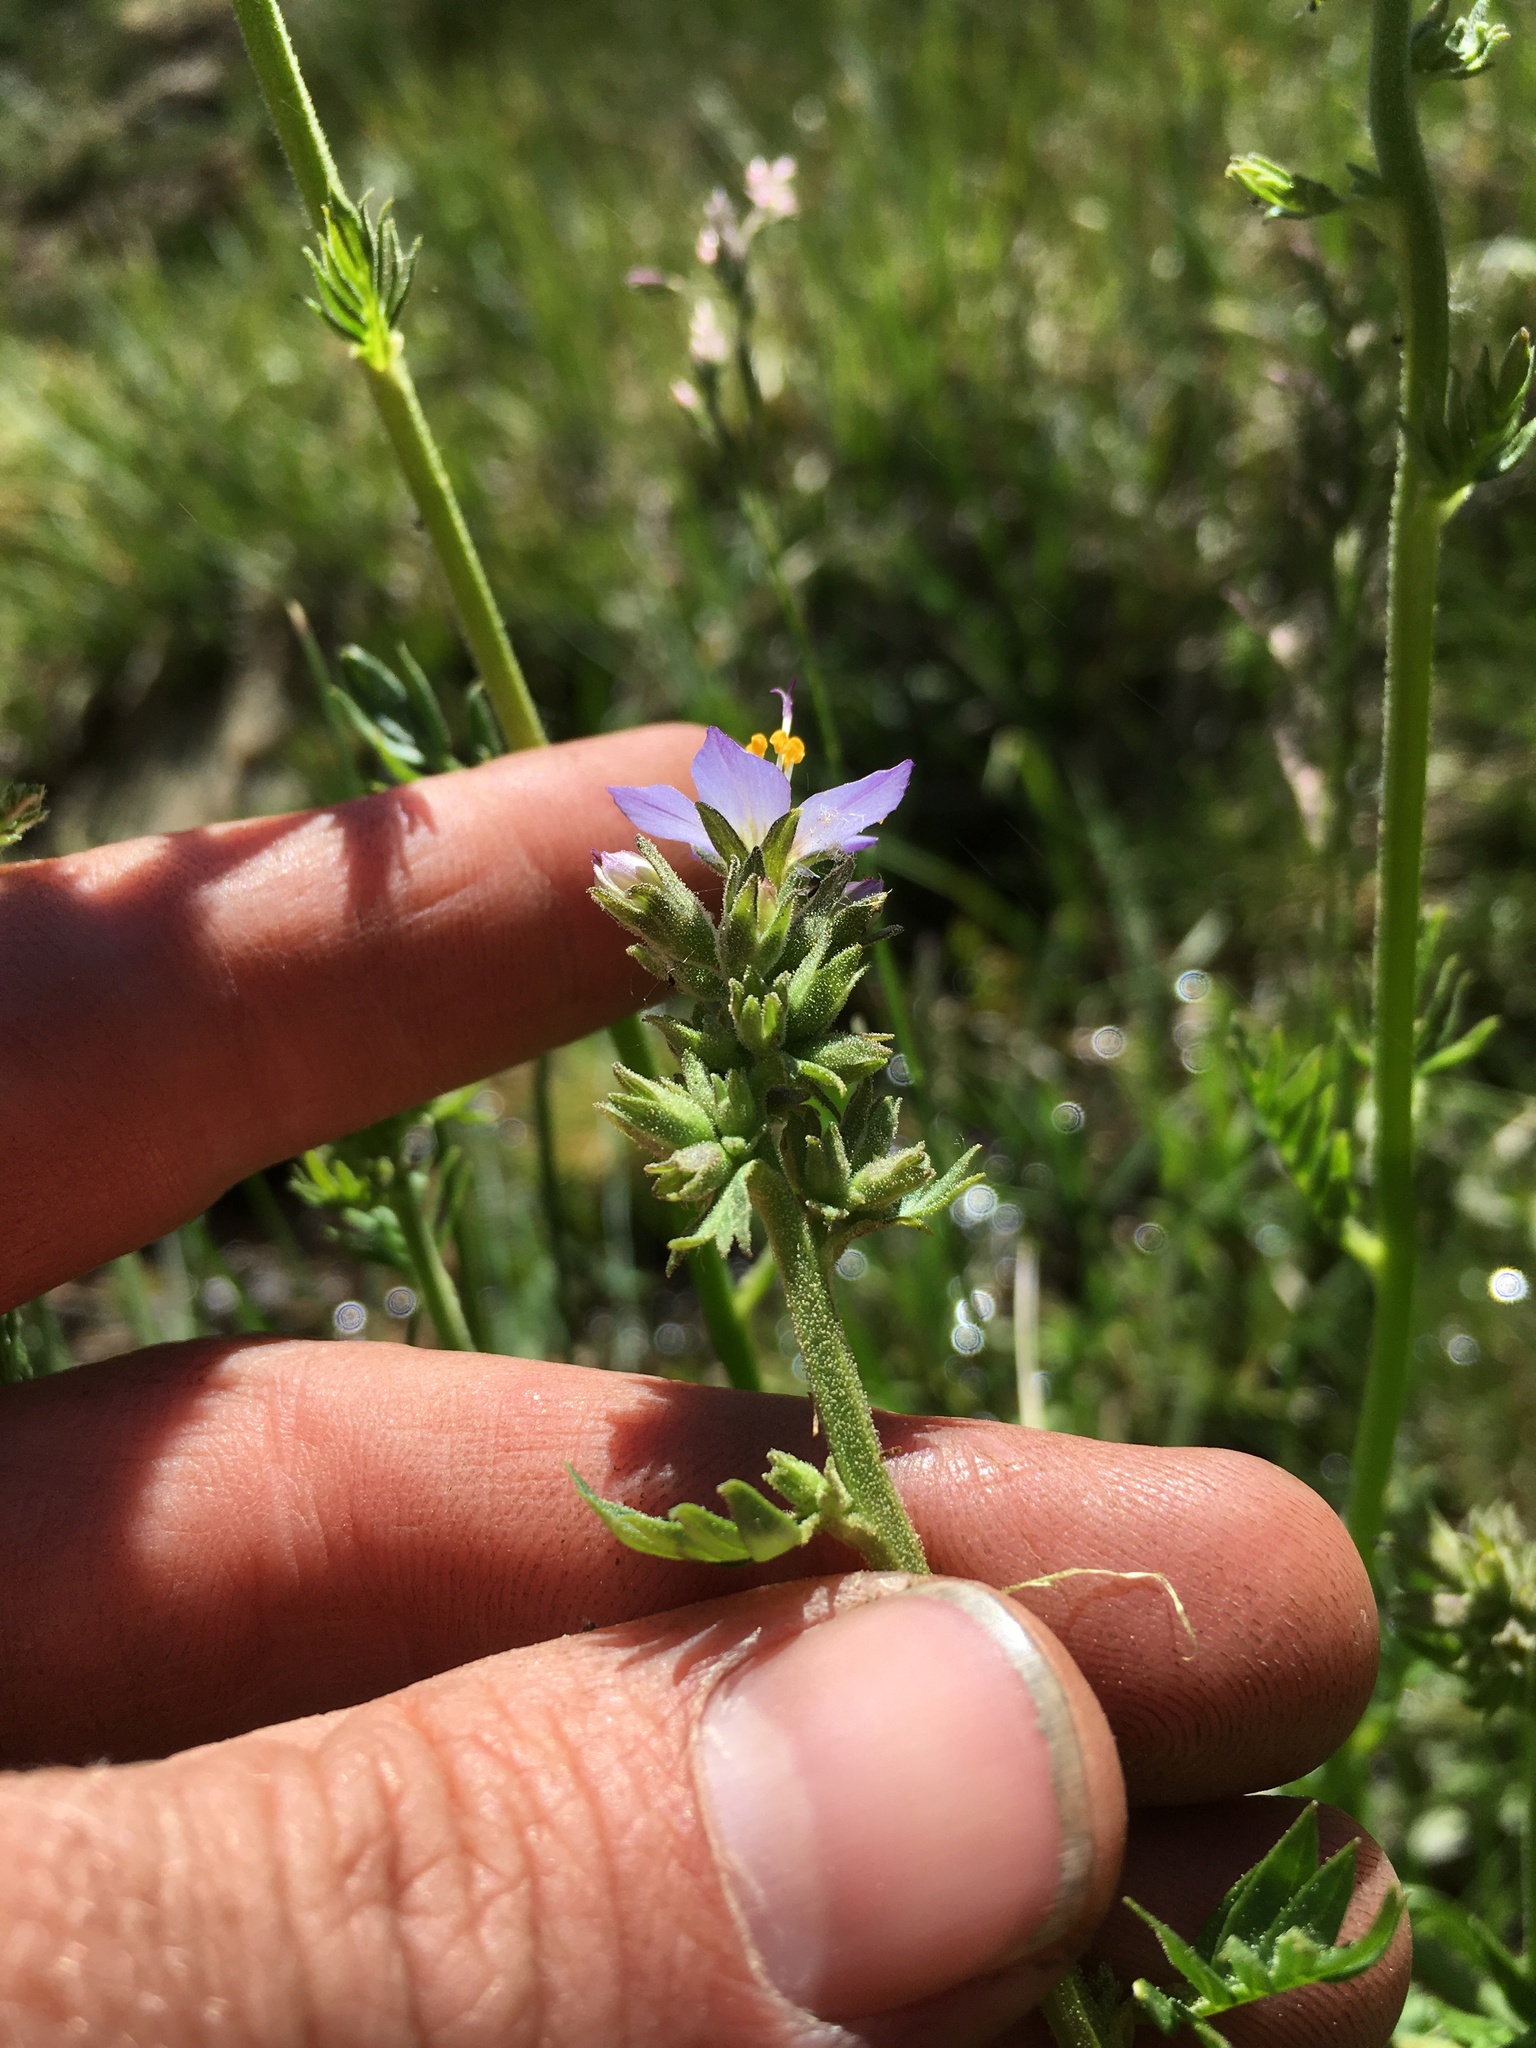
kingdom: Plantae
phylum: Tracheophyta
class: Magnoliopsida
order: Ericales
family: Polemoniaceae
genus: Polemonium
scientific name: Polemonium occidentale
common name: Western jacob's-ladder
